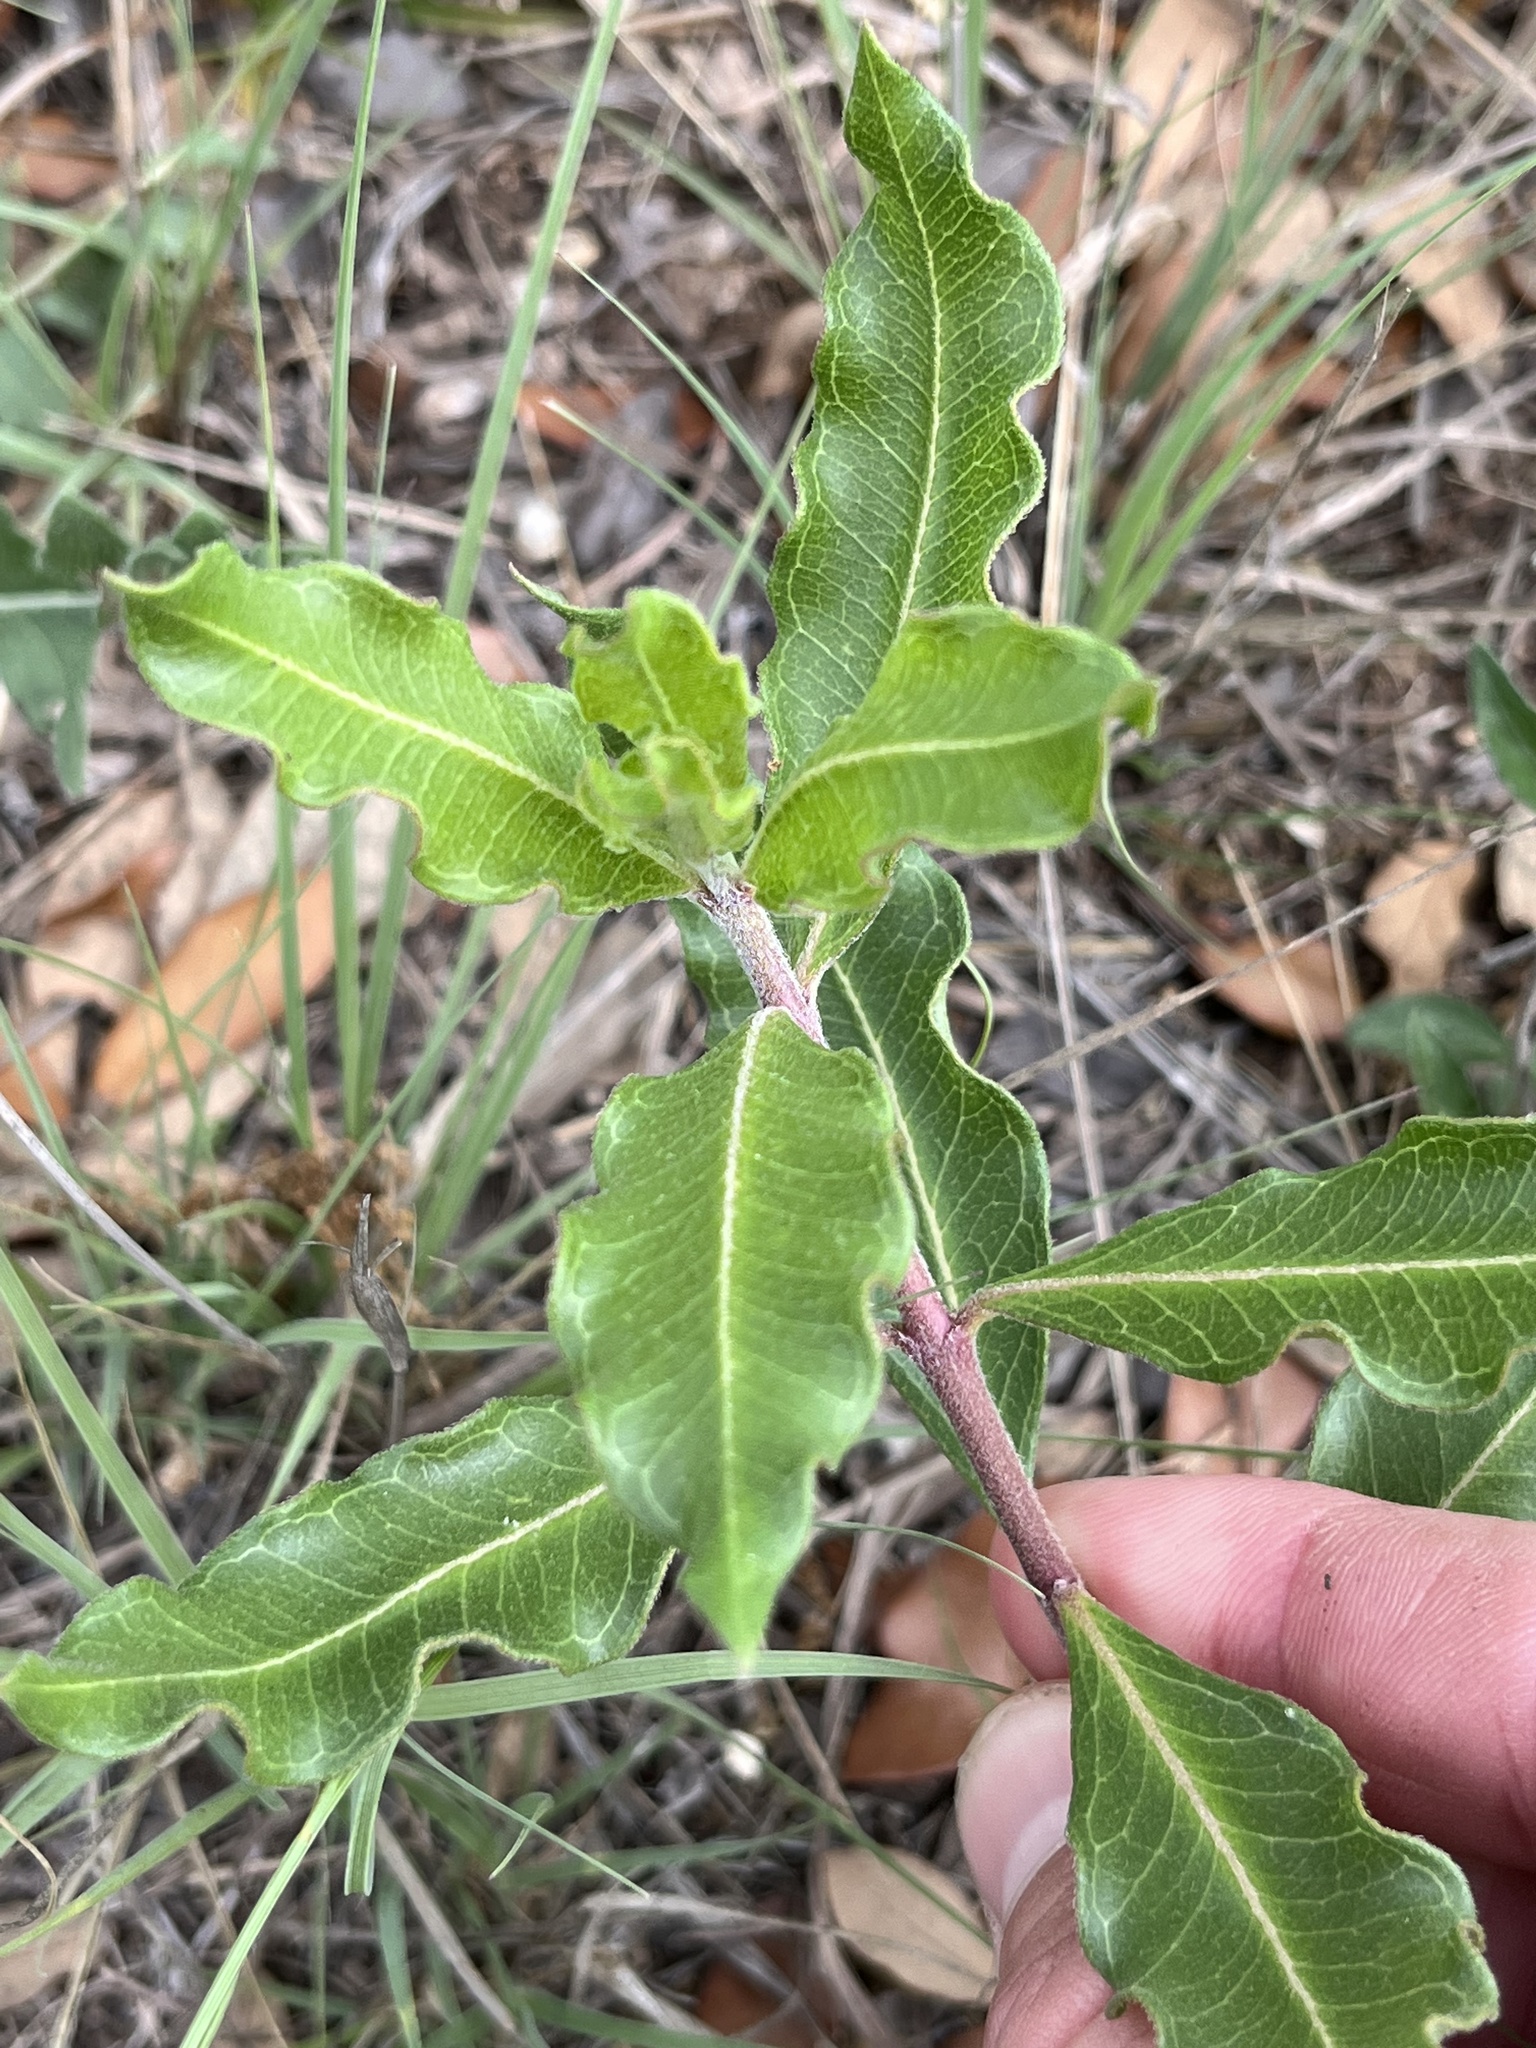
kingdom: Plantae
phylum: Tracheophyta
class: Magnoliopsida
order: Gentianales
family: Apocynaceae
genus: Asclepias
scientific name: Asclepias viridiflora
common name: Green comet milkweed
